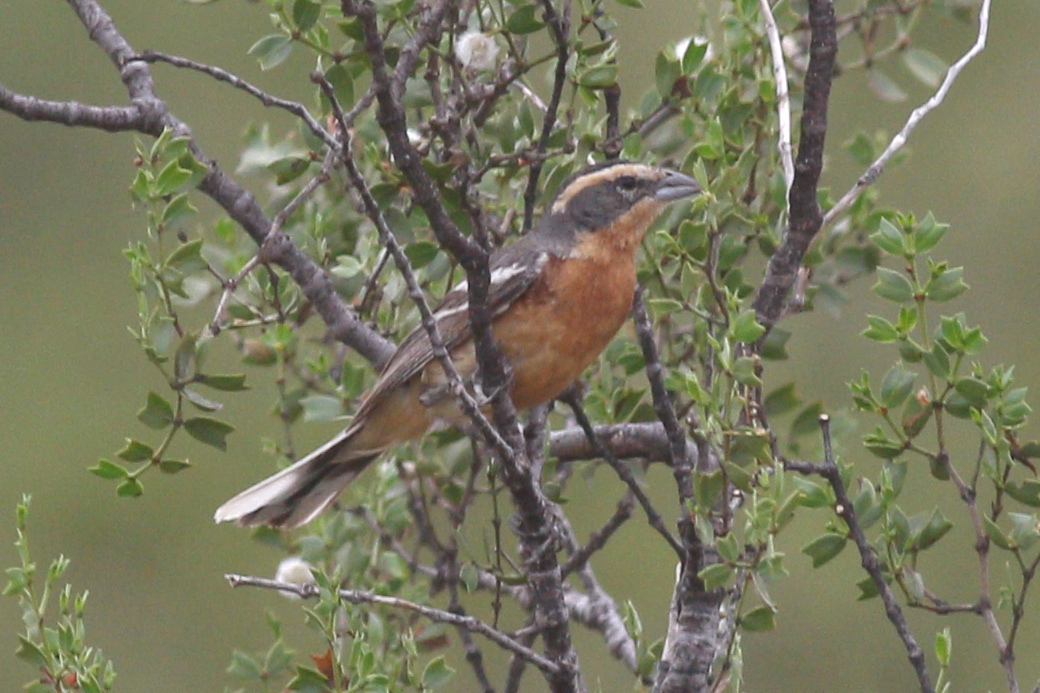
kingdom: Animalia
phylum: Chordata
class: Aves
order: Passeriformes
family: Thraupidae
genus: Poospiza
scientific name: Poospiza ornata
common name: Cinnamon warbling finch
